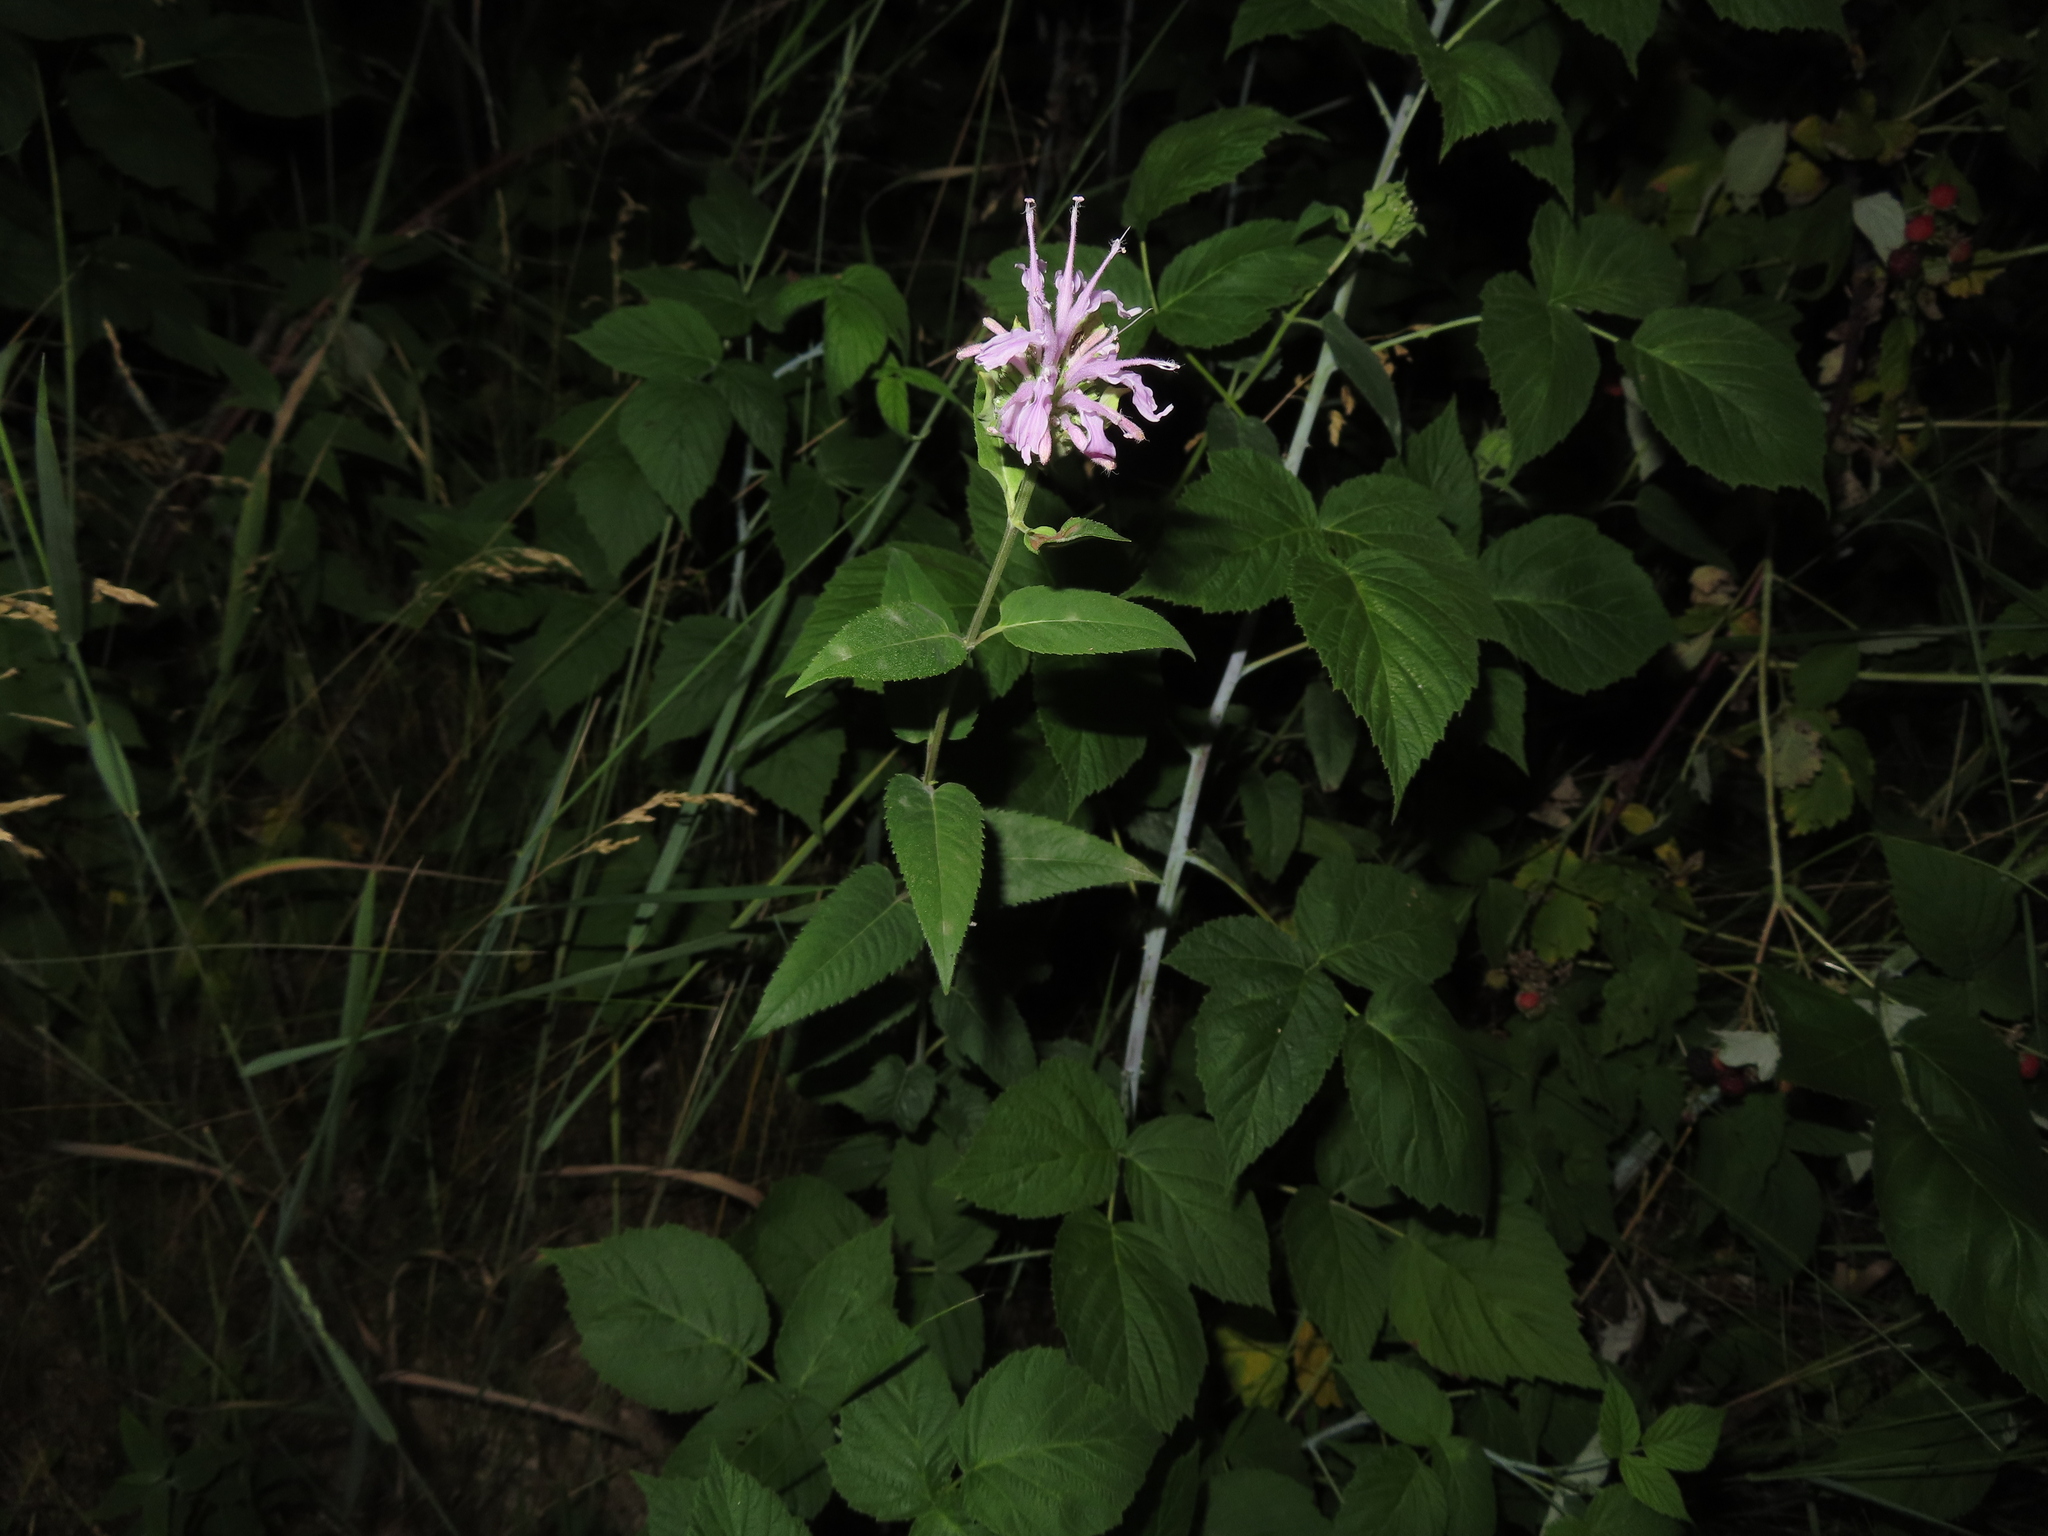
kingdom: Plantae
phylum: Tracheophyta
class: Magnoliopsida
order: Lamiales
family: Lamiaceae
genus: Monarda
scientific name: Monarda fistulosa
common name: Purple beebalm
